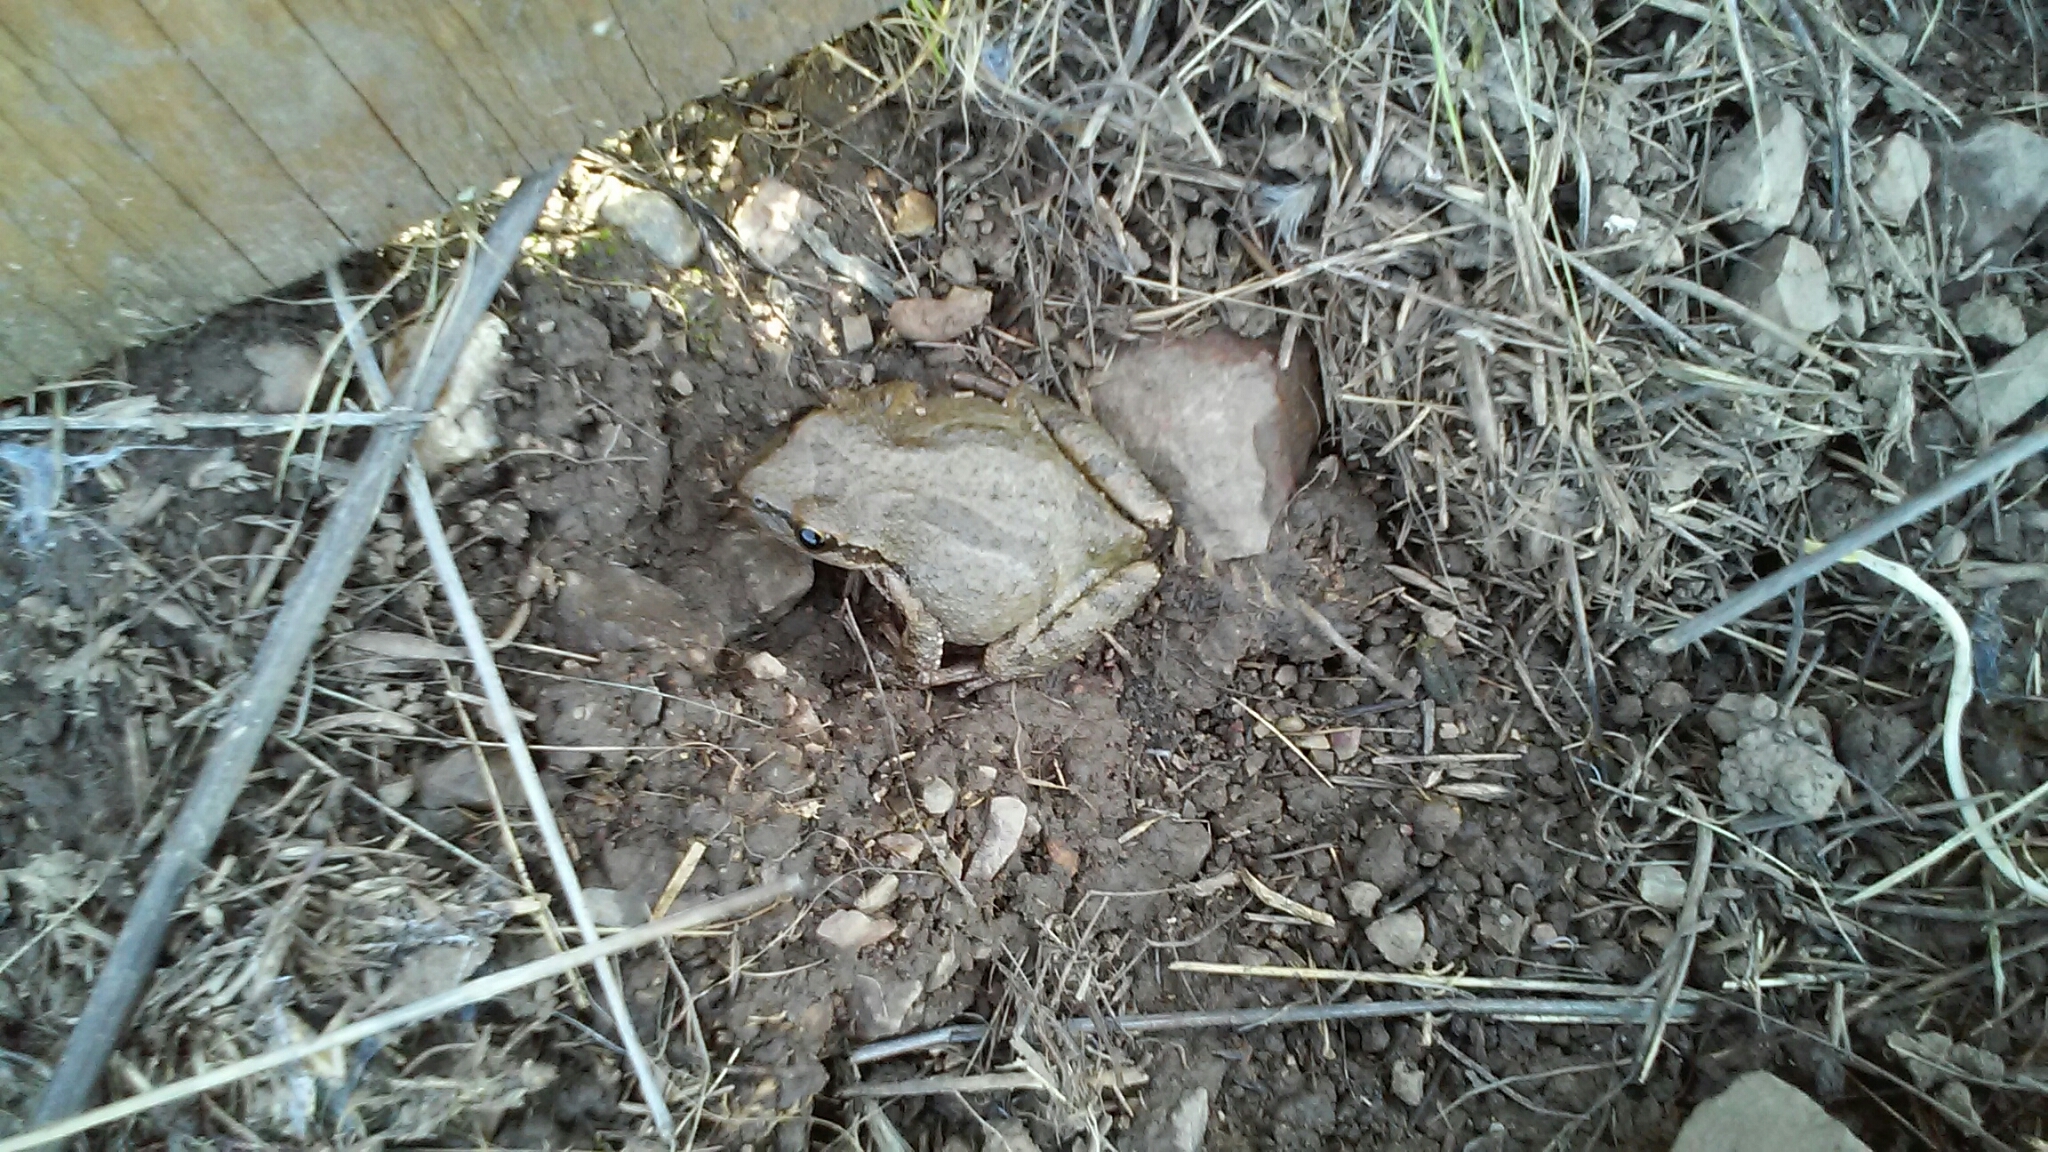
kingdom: Animalia
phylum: Chordata
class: Amphibia
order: Anura
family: Hylidae
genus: Pseudacris
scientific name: Pseudacris regilla
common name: Pacific chorus frog
